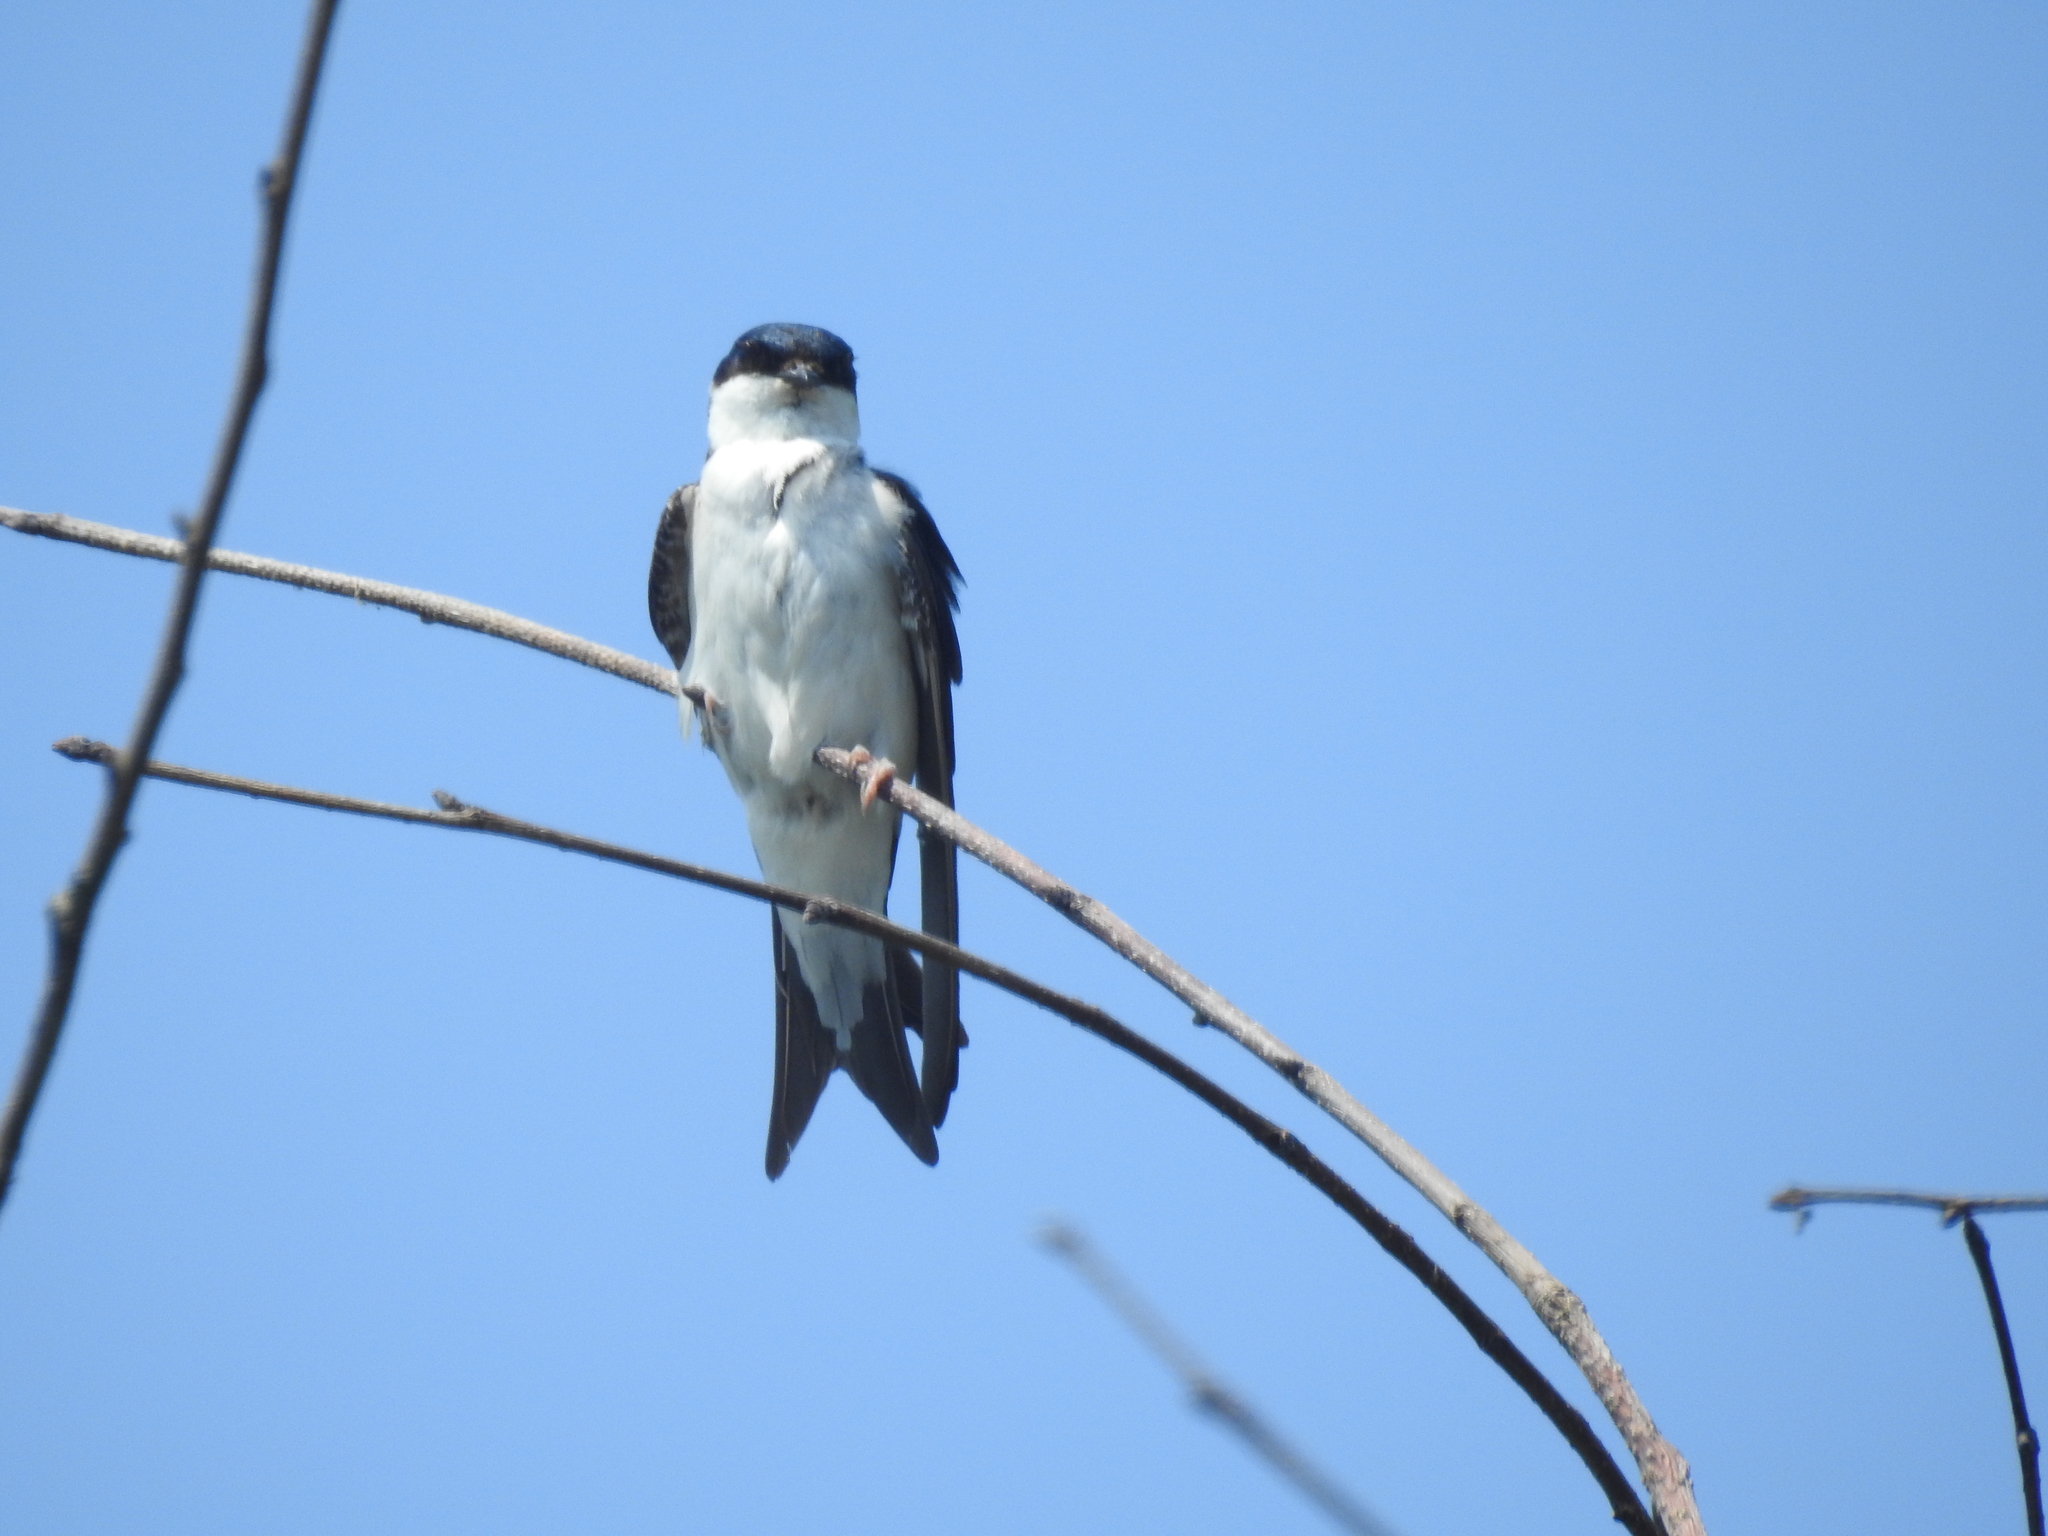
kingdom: Animalia
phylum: Chordata
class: Aves
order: Passeriformes
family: Hirundinidae
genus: Delichon
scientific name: Delichon urbicum
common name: Common house martin
